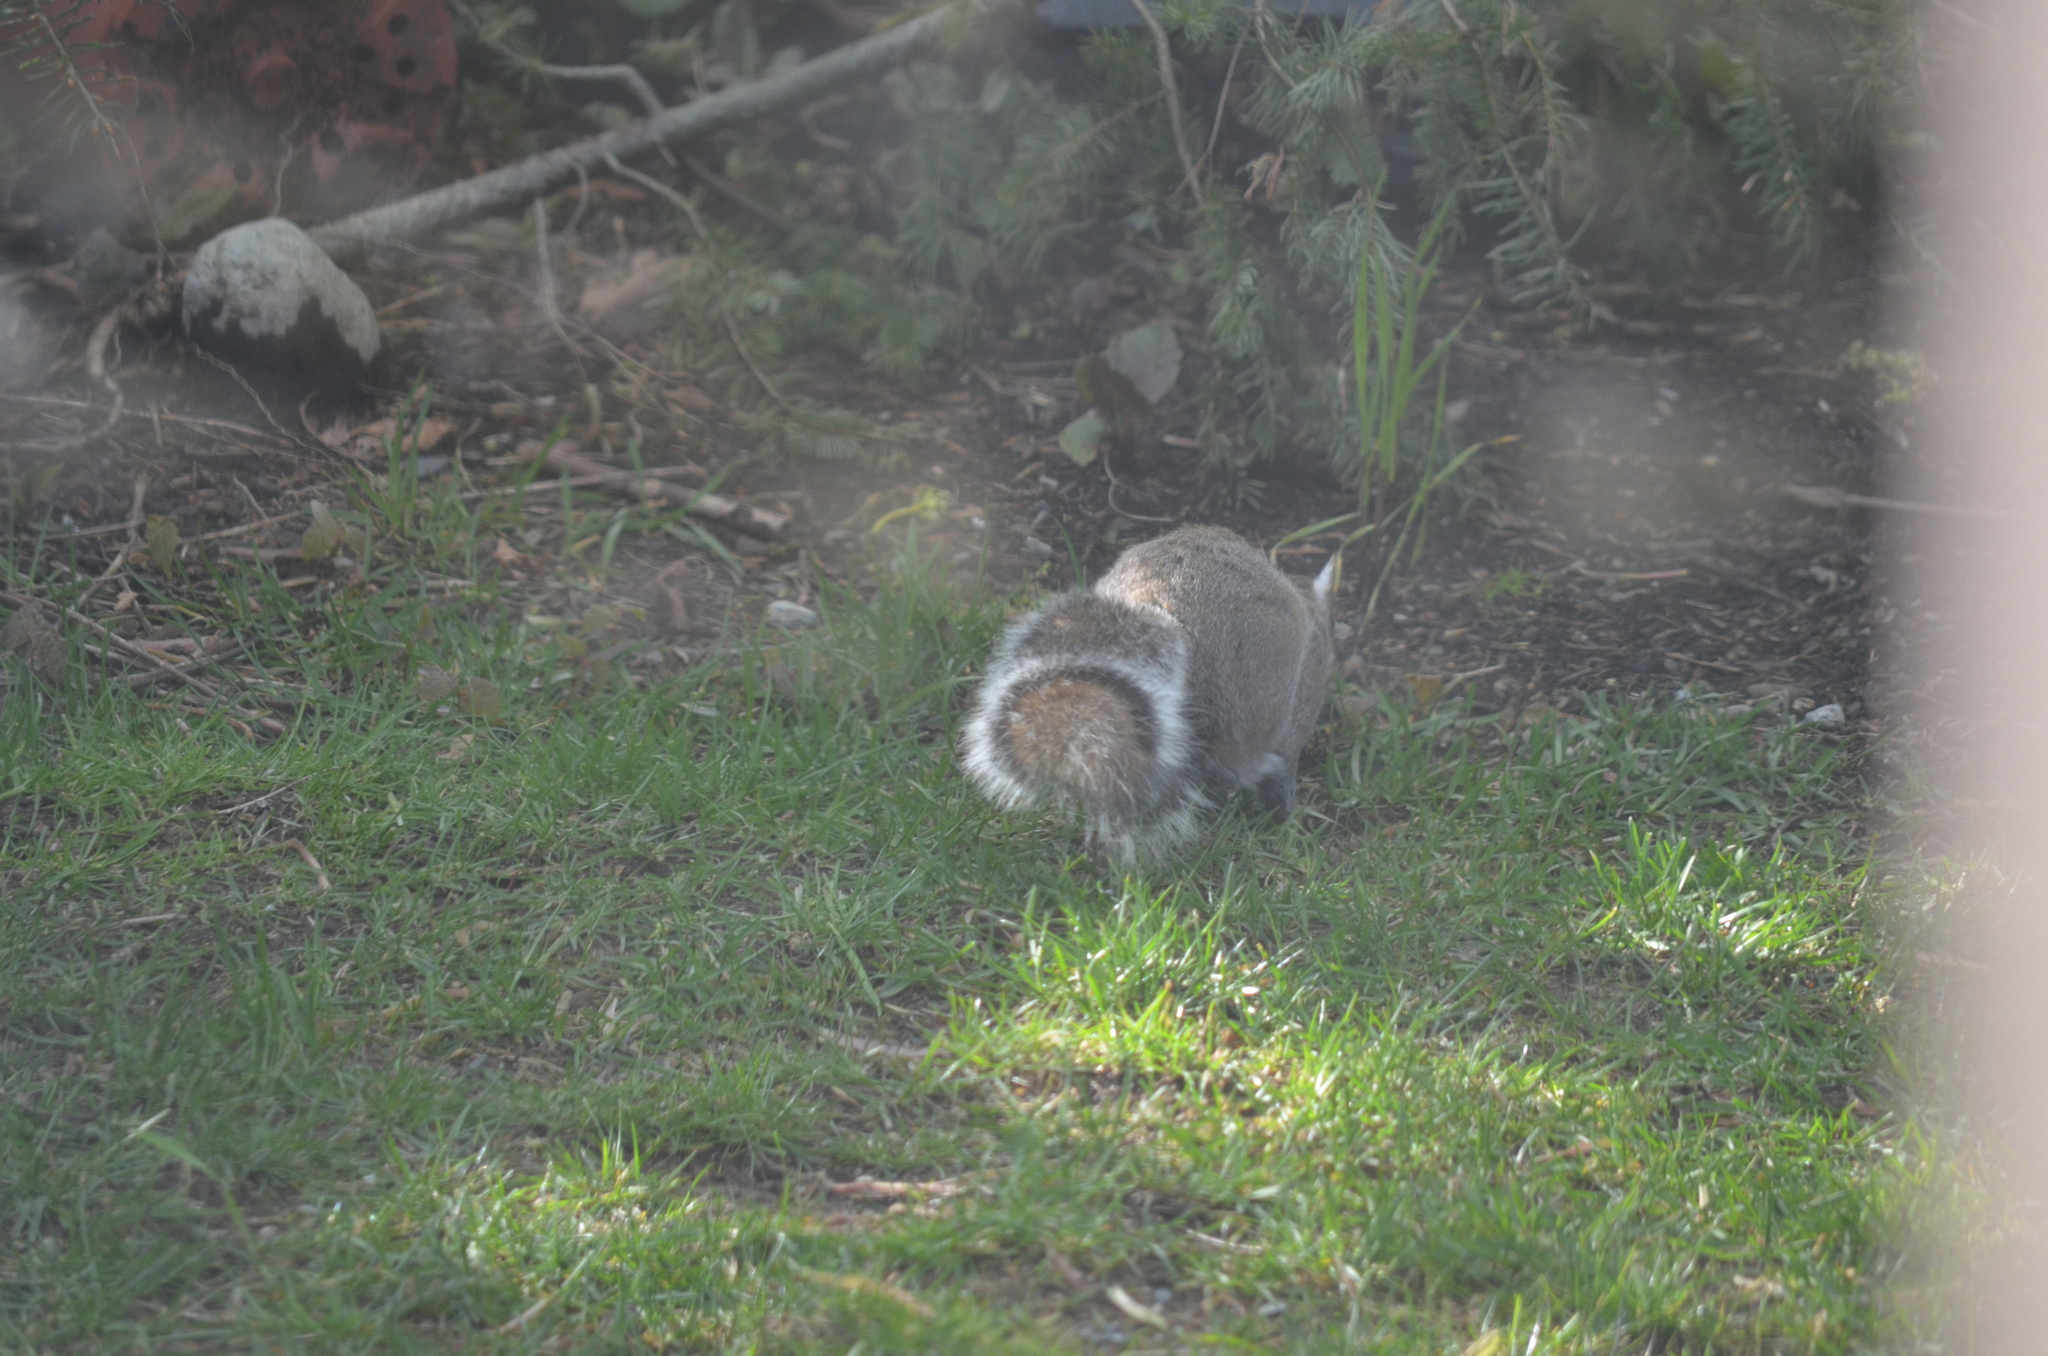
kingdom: Animalia
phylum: Chordata
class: Mammalia
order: Rodentia
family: Sciuridae
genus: Sciurus
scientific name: Sciurus carolinensis
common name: Eastern gray squirrel
